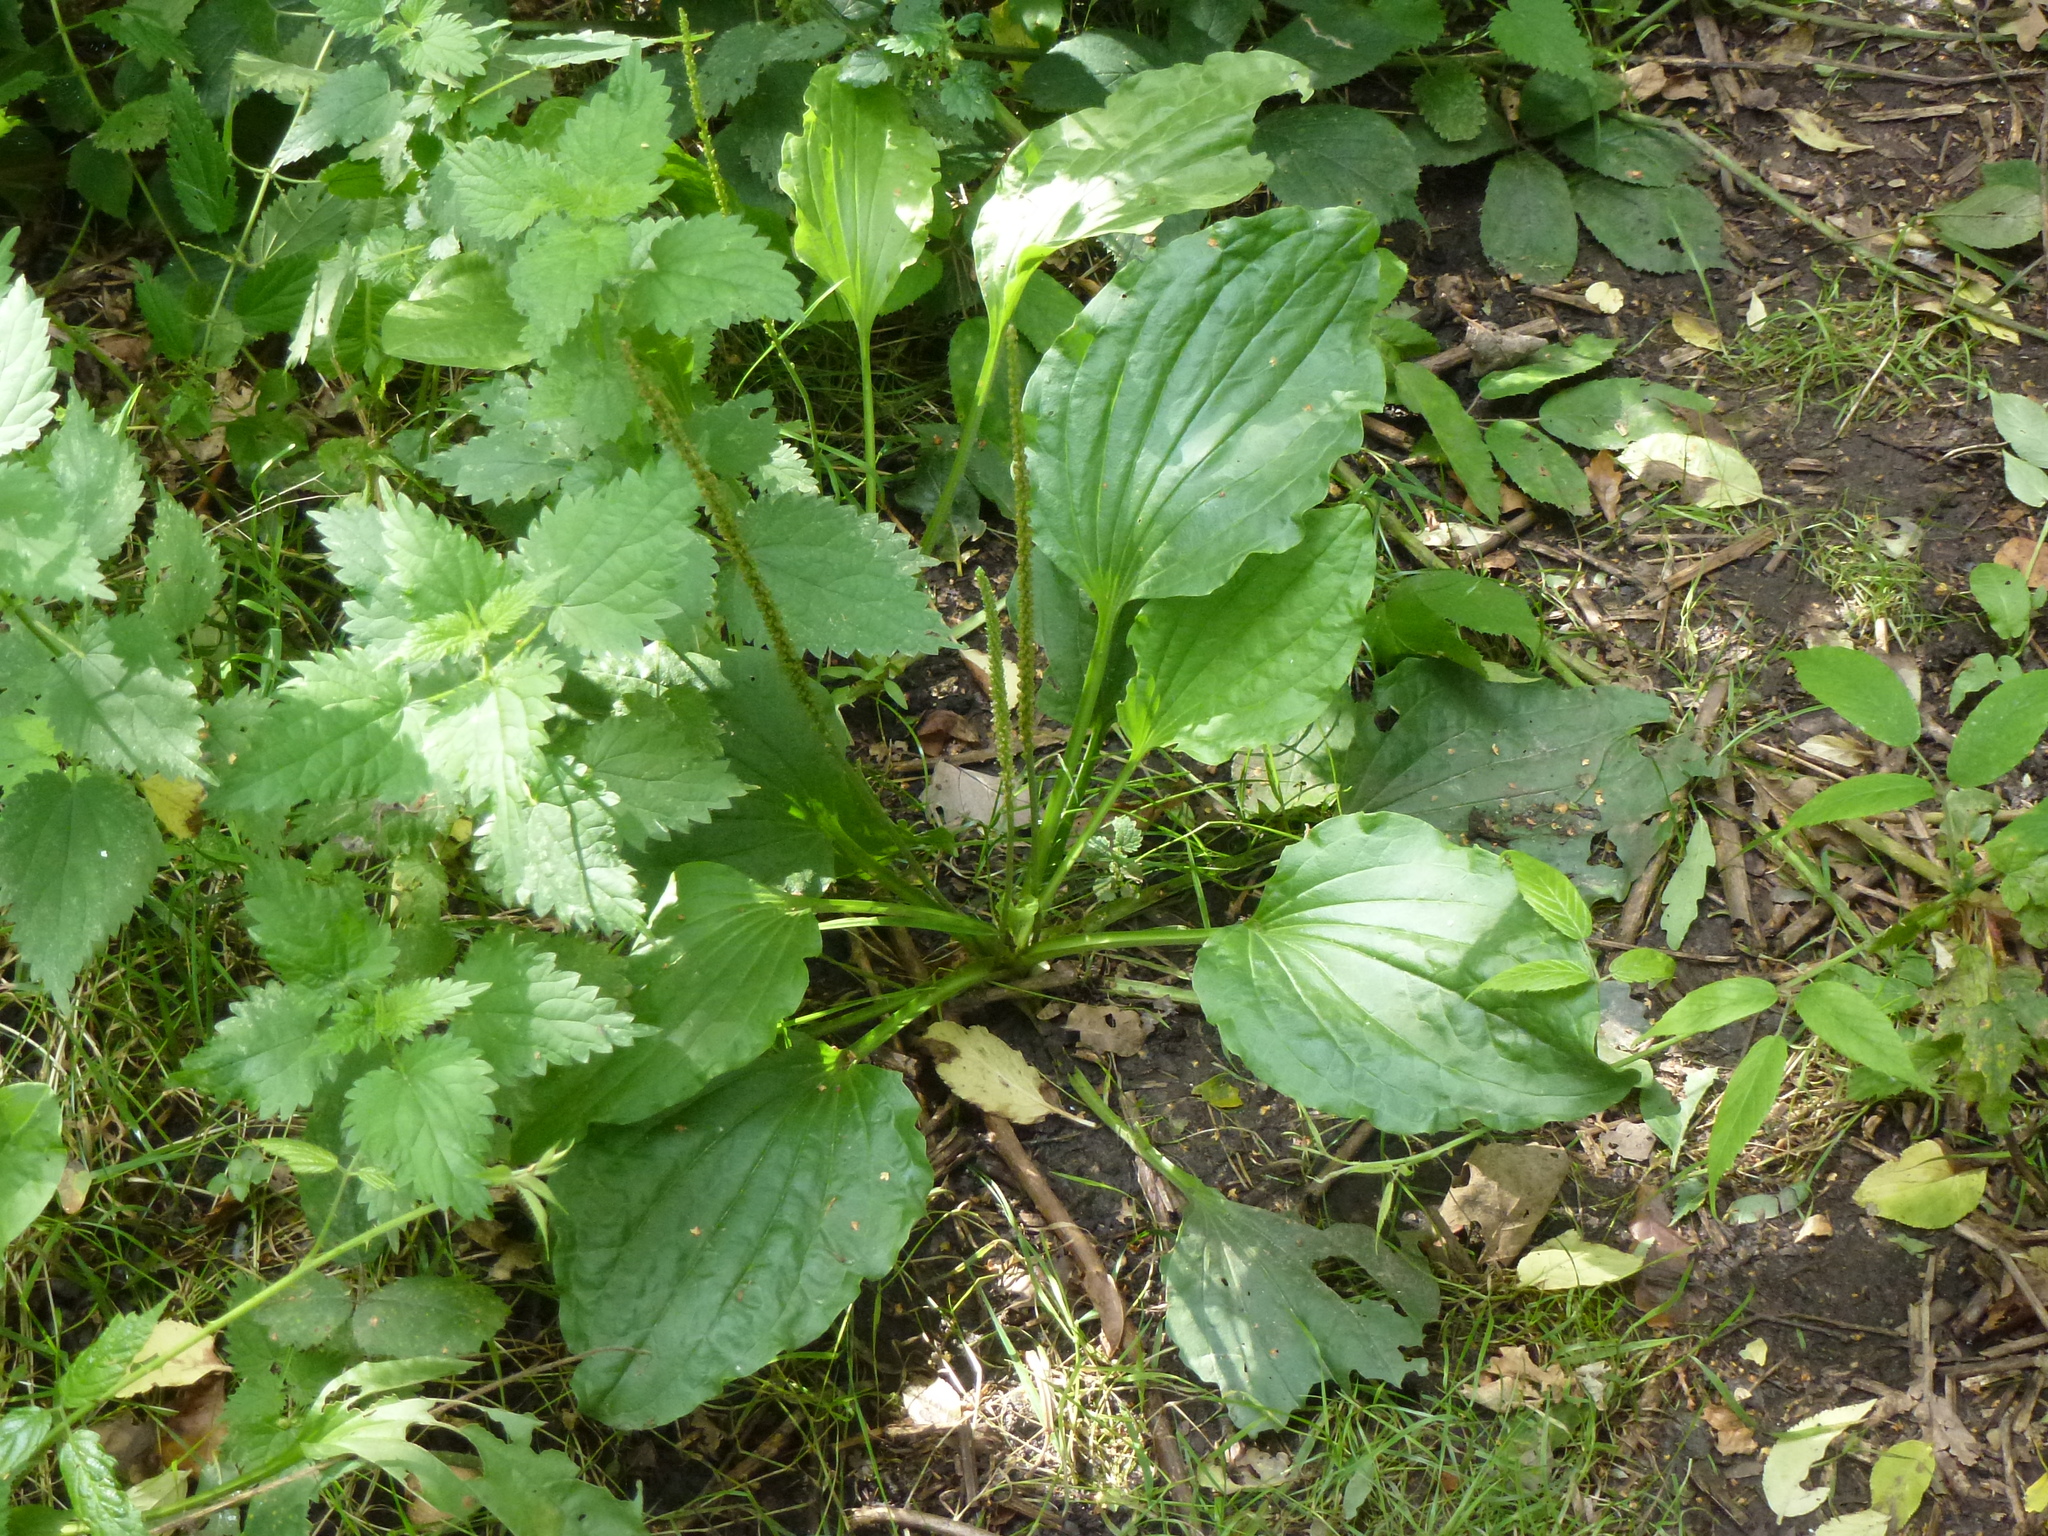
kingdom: Plantae
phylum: Tracheophyta
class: Magnoliopsida
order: Lamiales
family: Plantaginaceae
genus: Plantago
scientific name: Plantago major
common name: Common plantain
